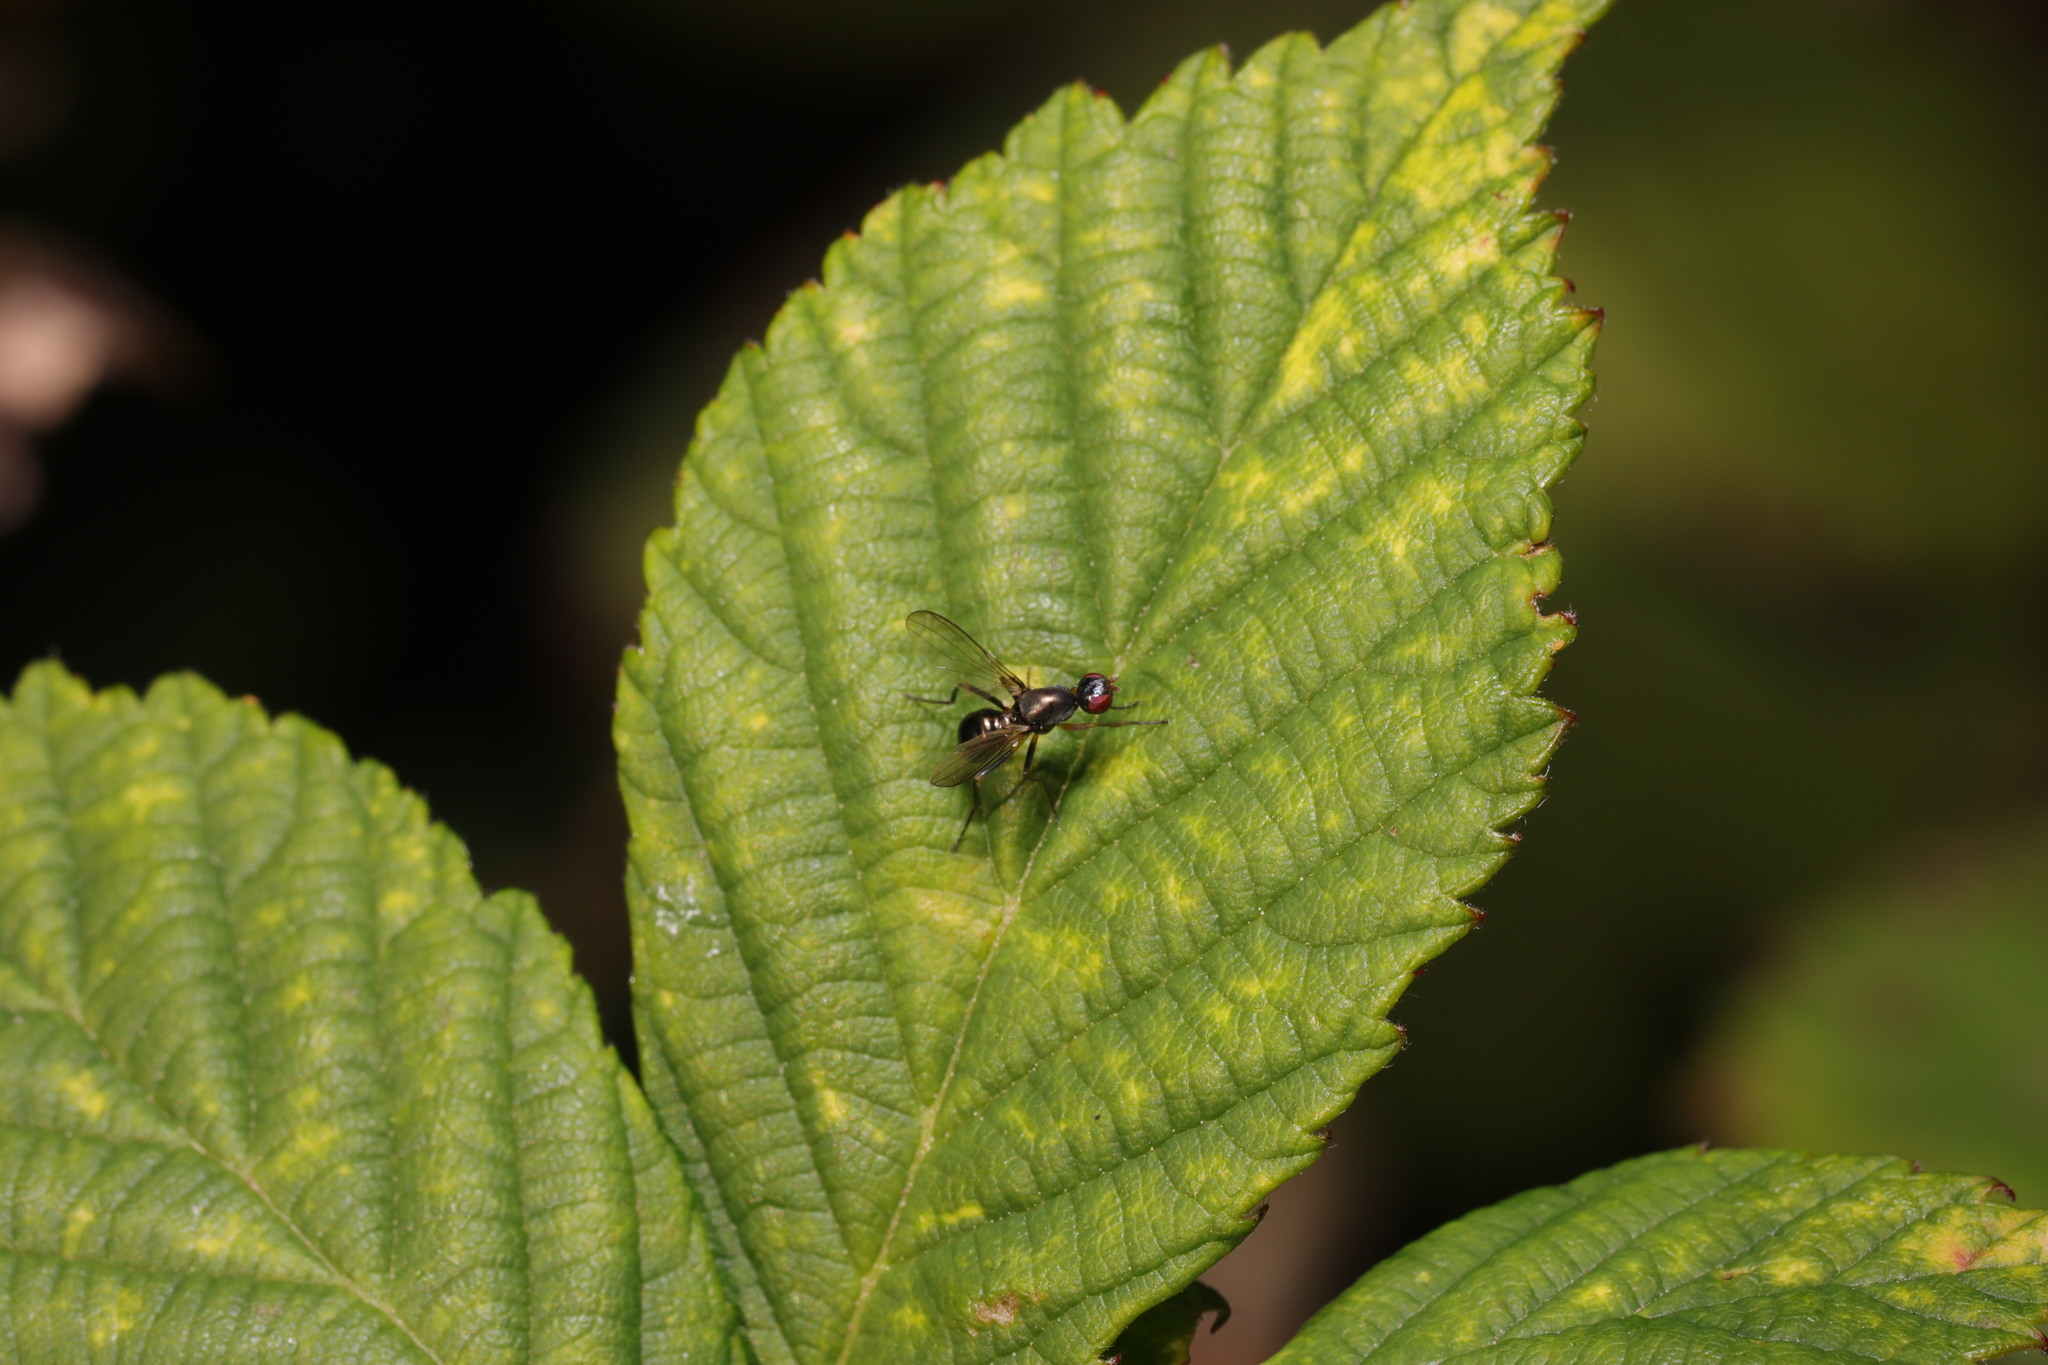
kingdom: Animalia
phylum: Arthropoda
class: Insecta
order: Diptera
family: Sepsidae
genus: Nemopoda
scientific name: Nemopoda nitidula
